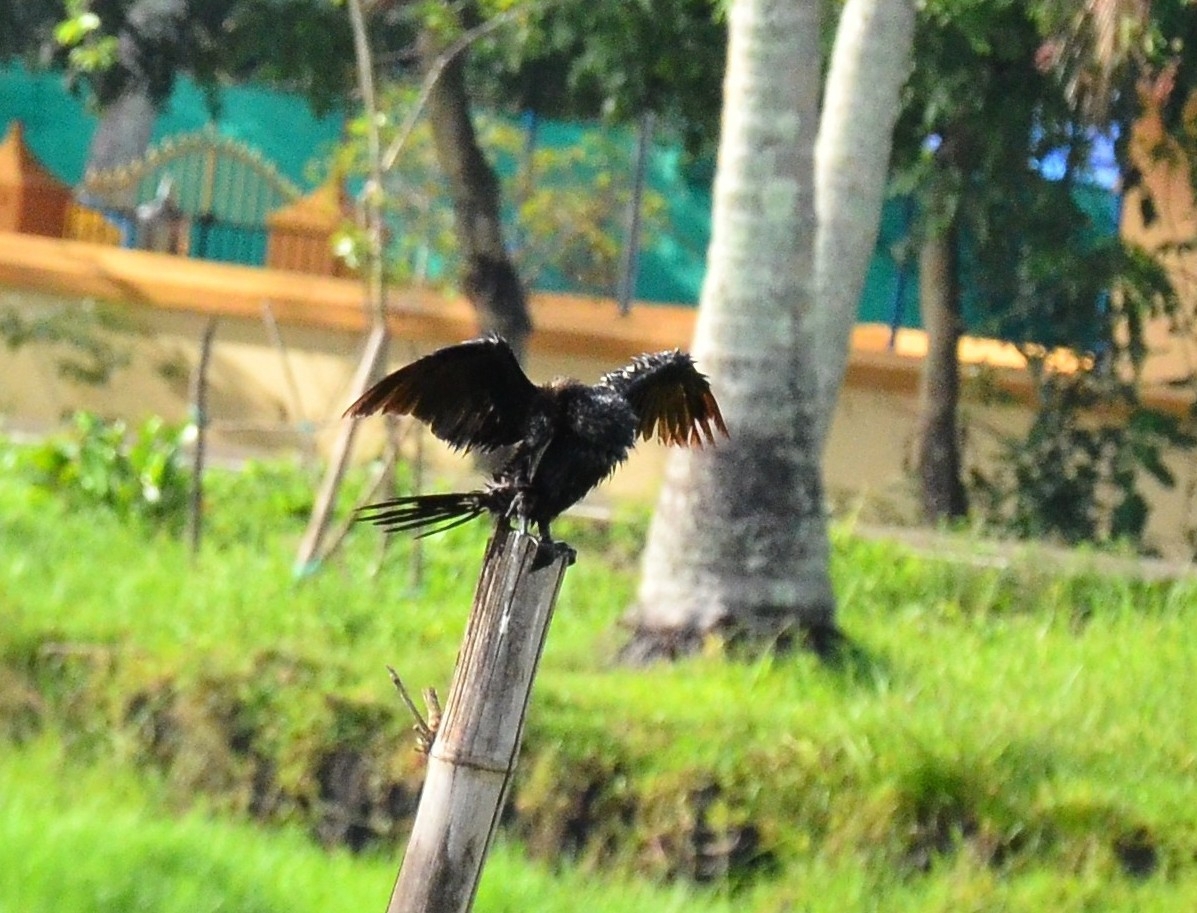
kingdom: Animalia
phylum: Chordata
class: Aves
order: Suliformes
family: Phalacrocoracidae
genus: Microcarbo
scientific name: Microcarbo niger
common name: Little cormorant
